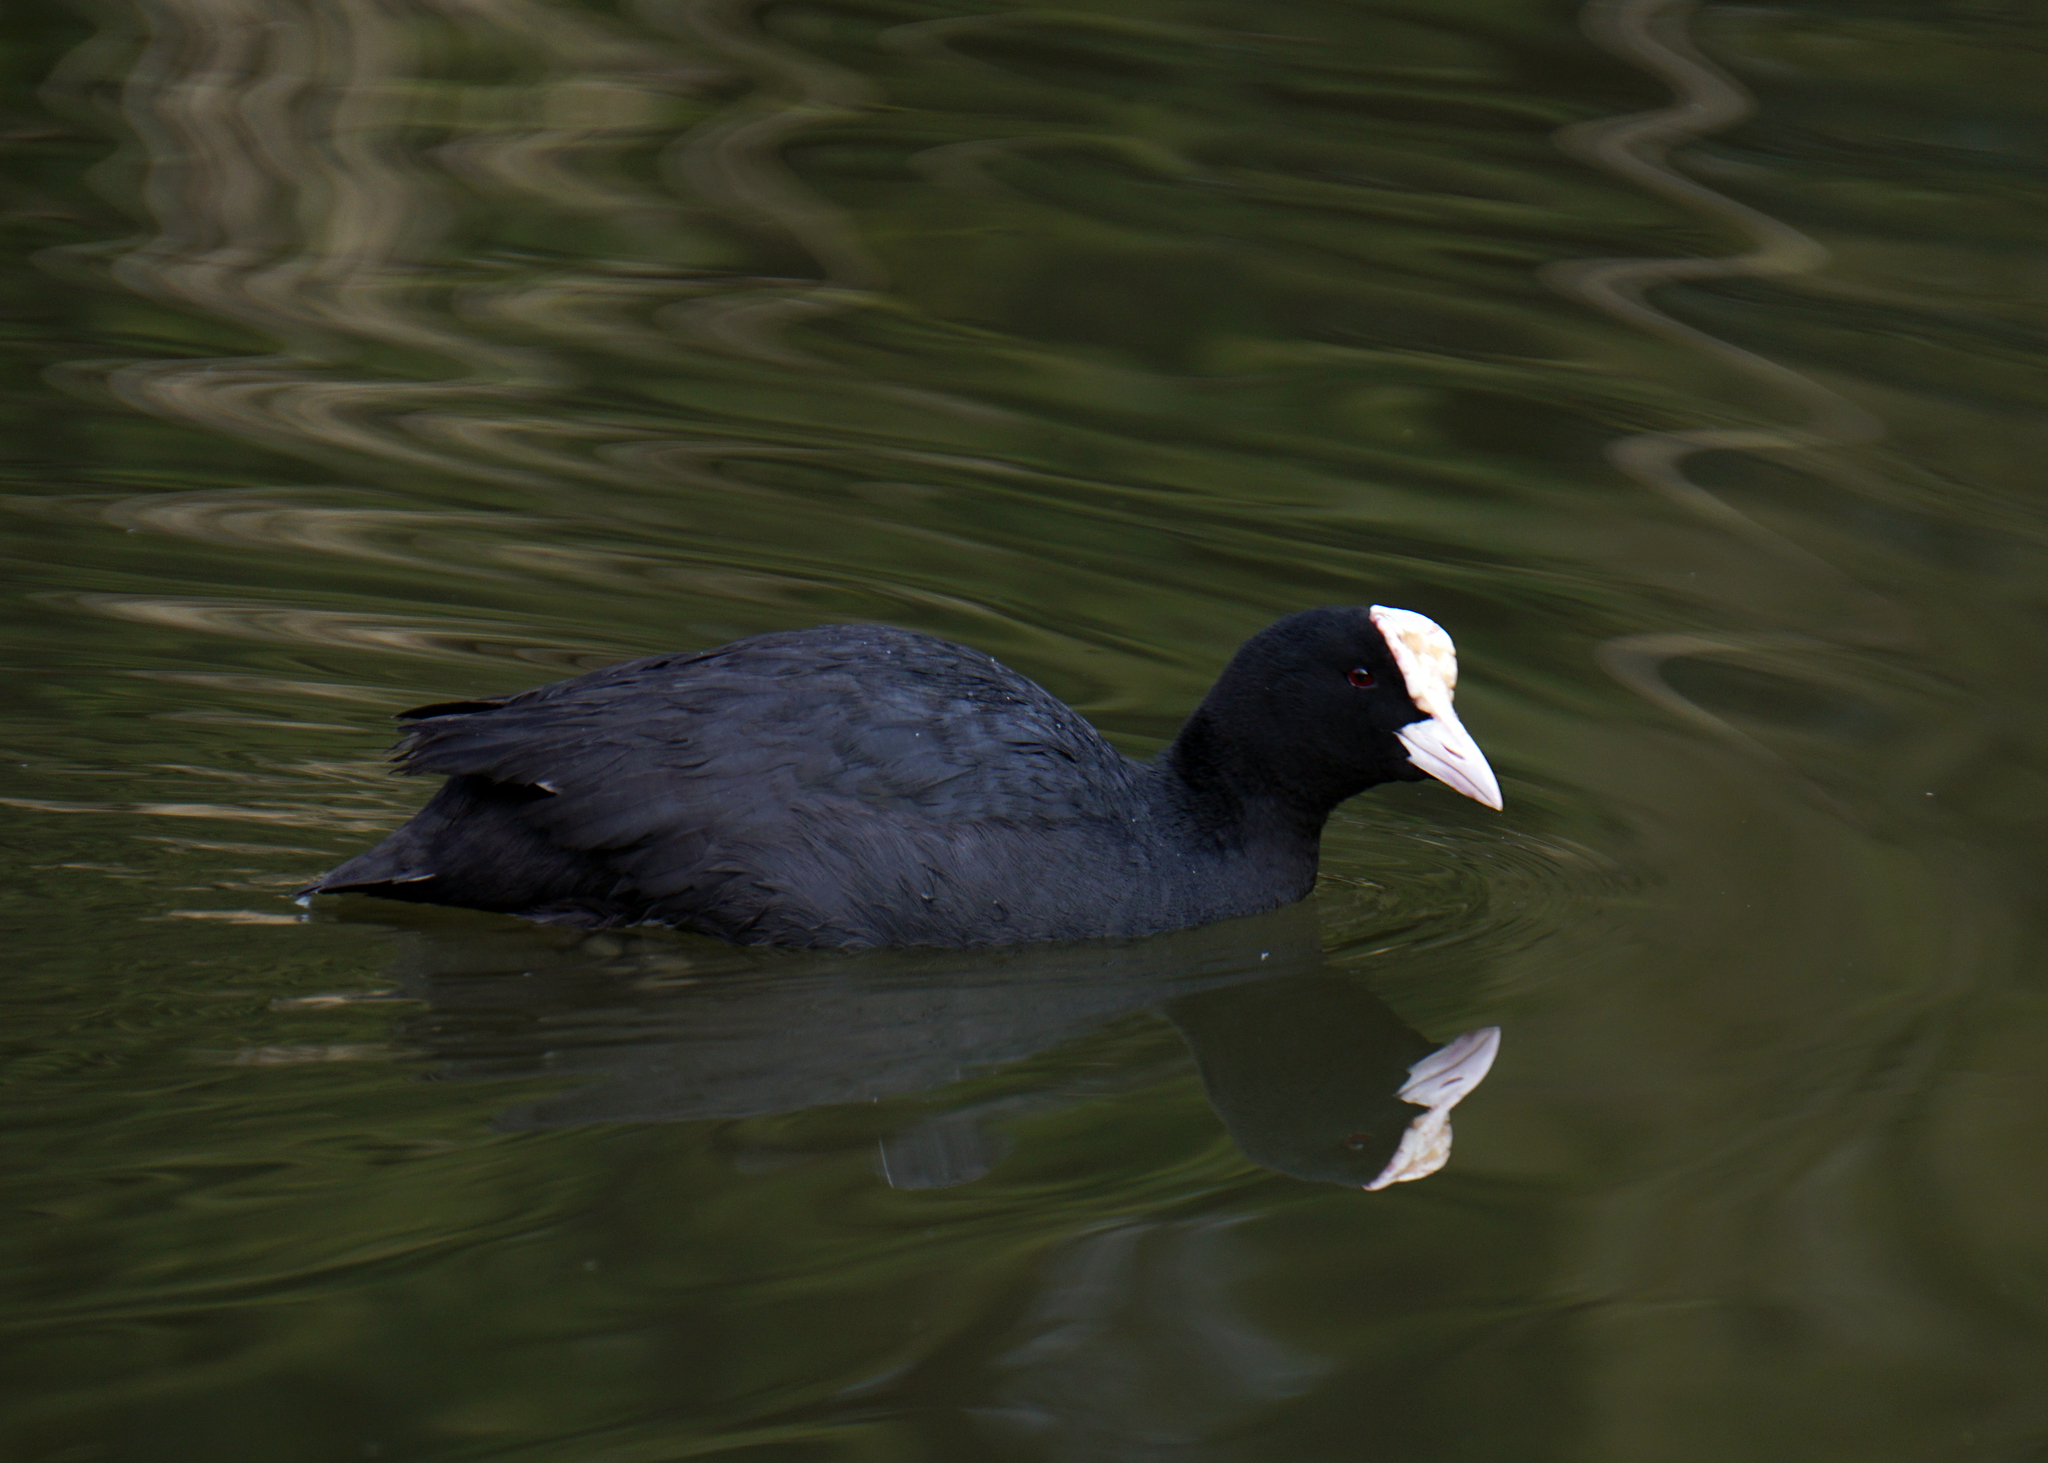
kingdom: Animalia
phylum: Chordata
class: Aves
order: Gruiformes
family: Rallidae
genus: Fulica
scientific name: Fulica atra
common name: Eurasian coot
